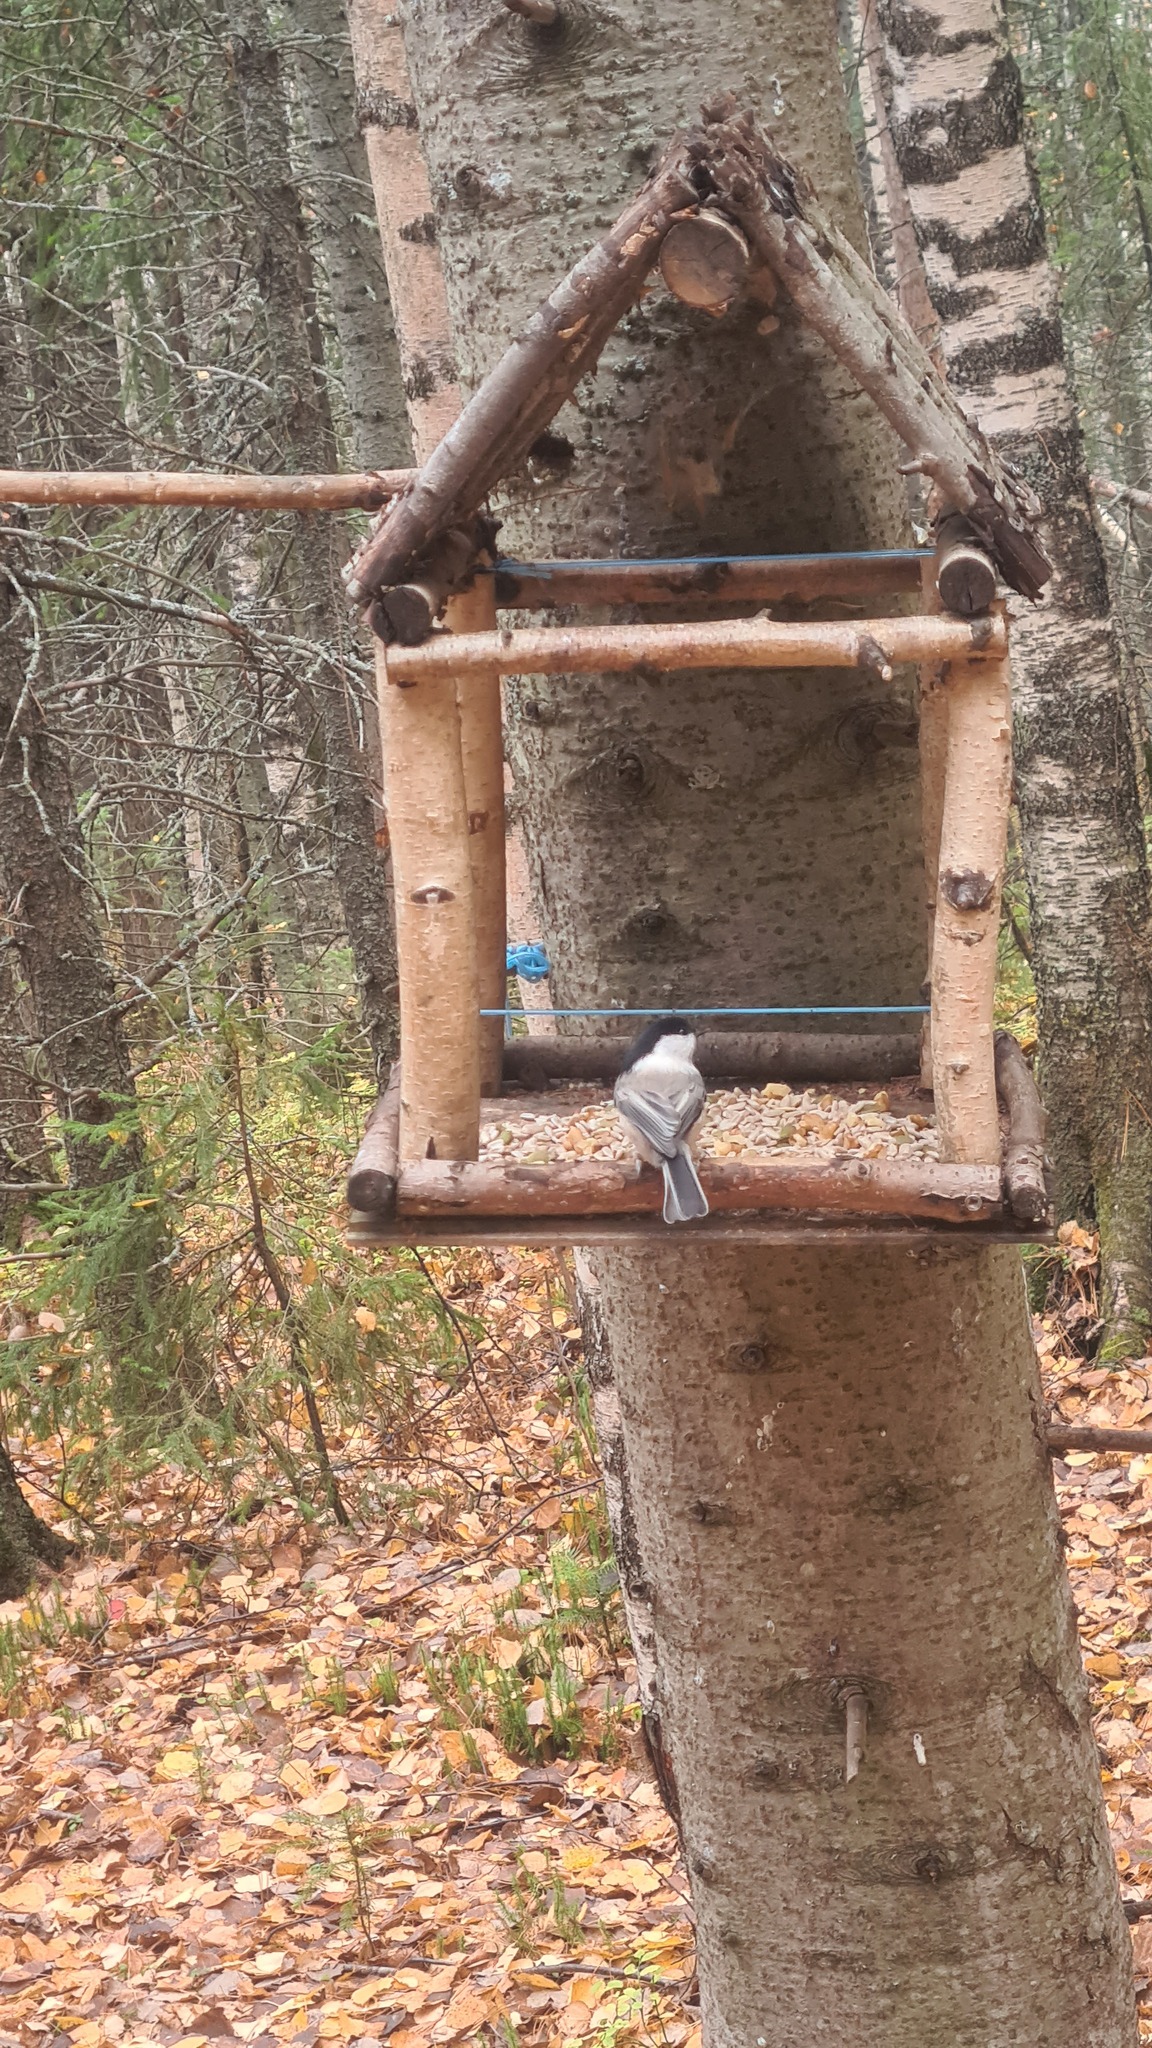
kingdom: Animalia
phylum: Chordata
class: Aves
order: Passeriformes
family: Paridae
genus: Poecile
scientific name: Poecile montanus
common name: Willow tit
